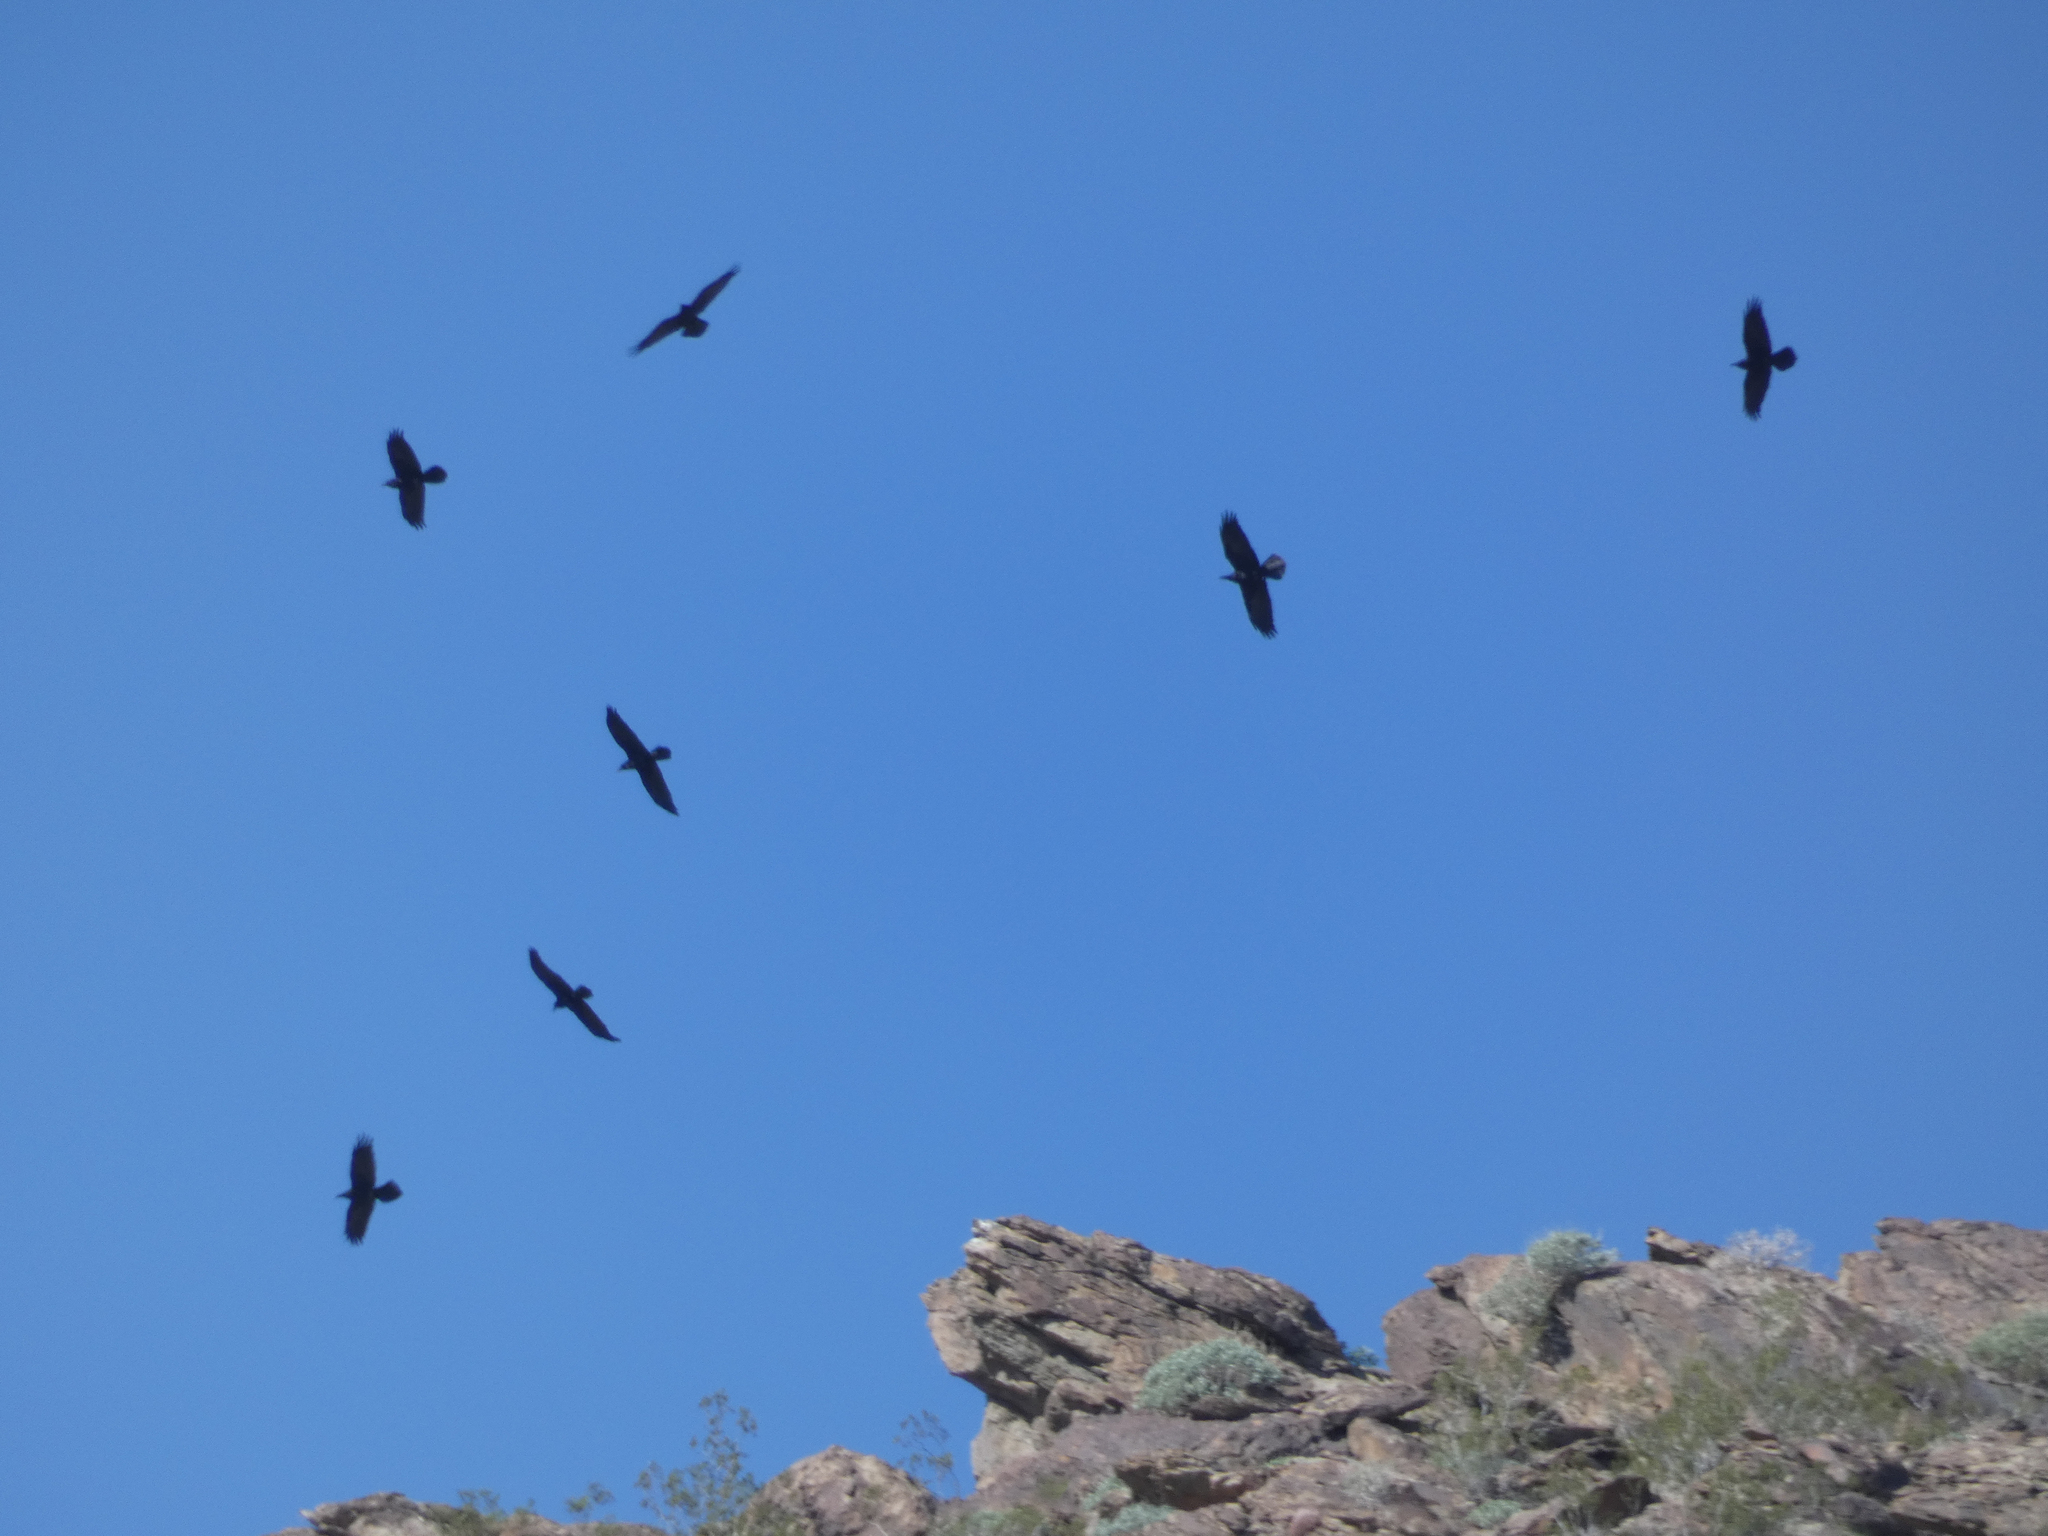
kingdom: Animalia
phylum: Chordata
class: Aves
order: Passeriformes
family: Corvidae
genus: Corvus
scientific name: Corvus corax
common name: Common raven
